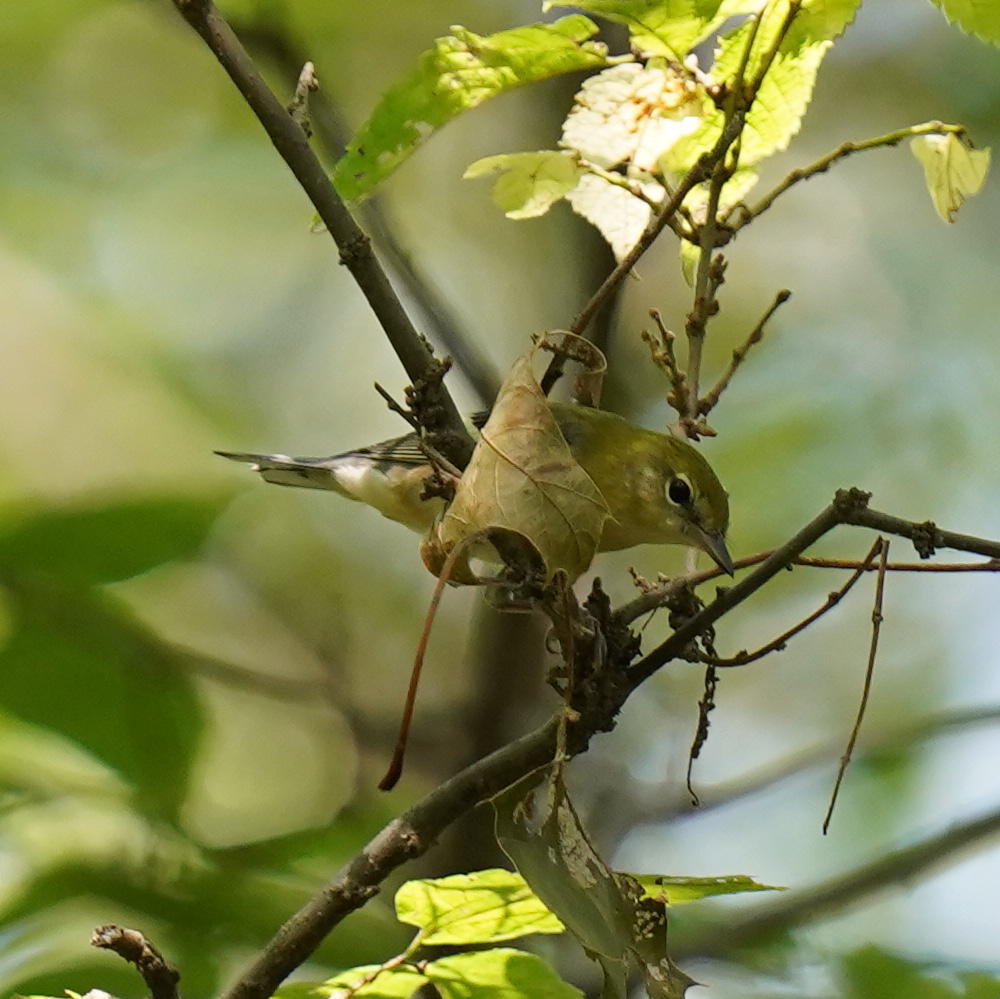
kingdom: Animalia
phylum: Chordata
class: Aves
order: Passeriformes
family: Parulidae
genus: Setophaga
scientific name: Setophaga castanea
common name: Bay-breasted warbler
